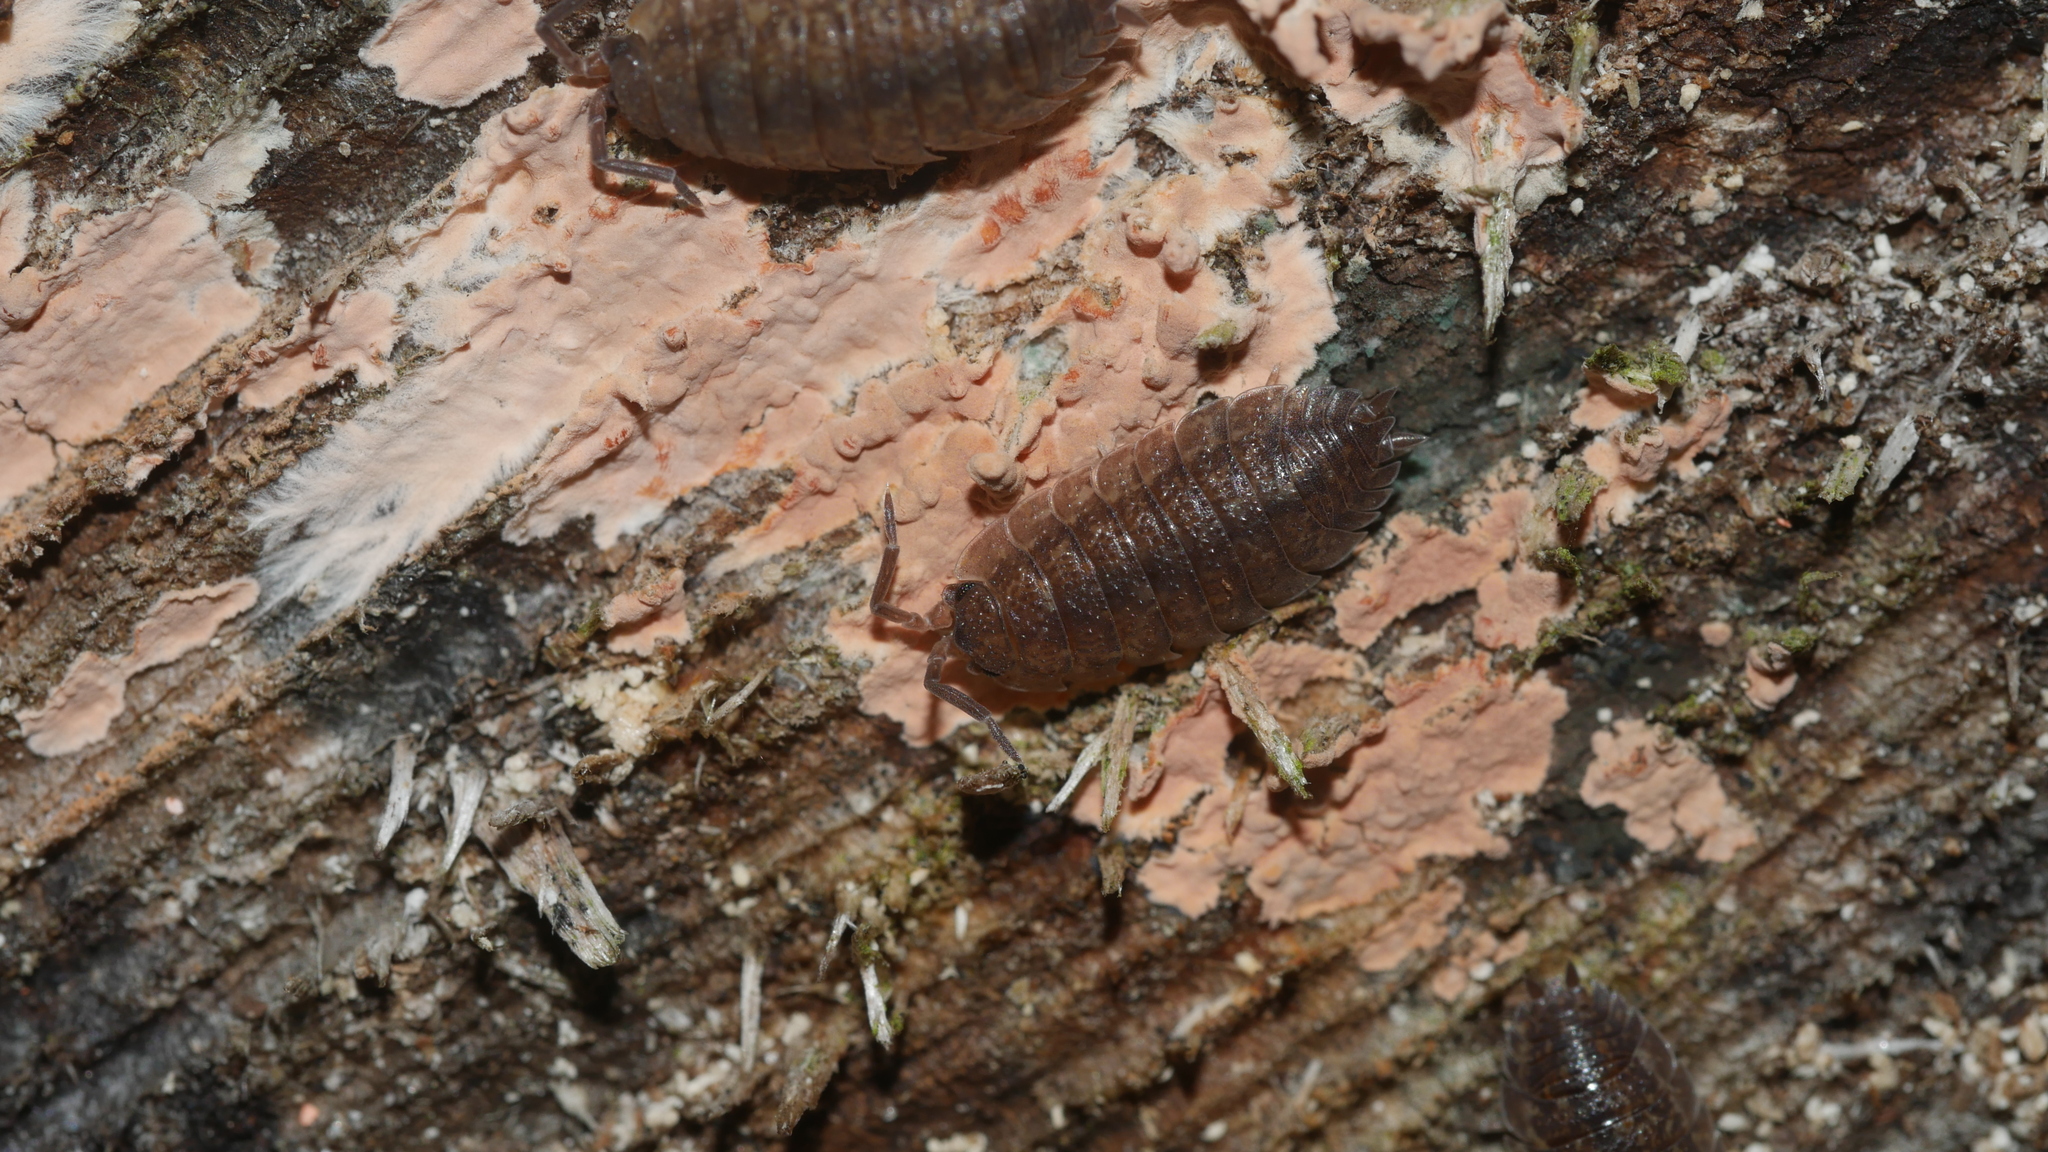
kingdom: Animalia
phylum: Arthropoda
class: Malacostraca
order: Isopoda
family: Porcellionidae
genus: Porcellio
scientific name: Porcellio scaber
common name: Common rough woodlouse
